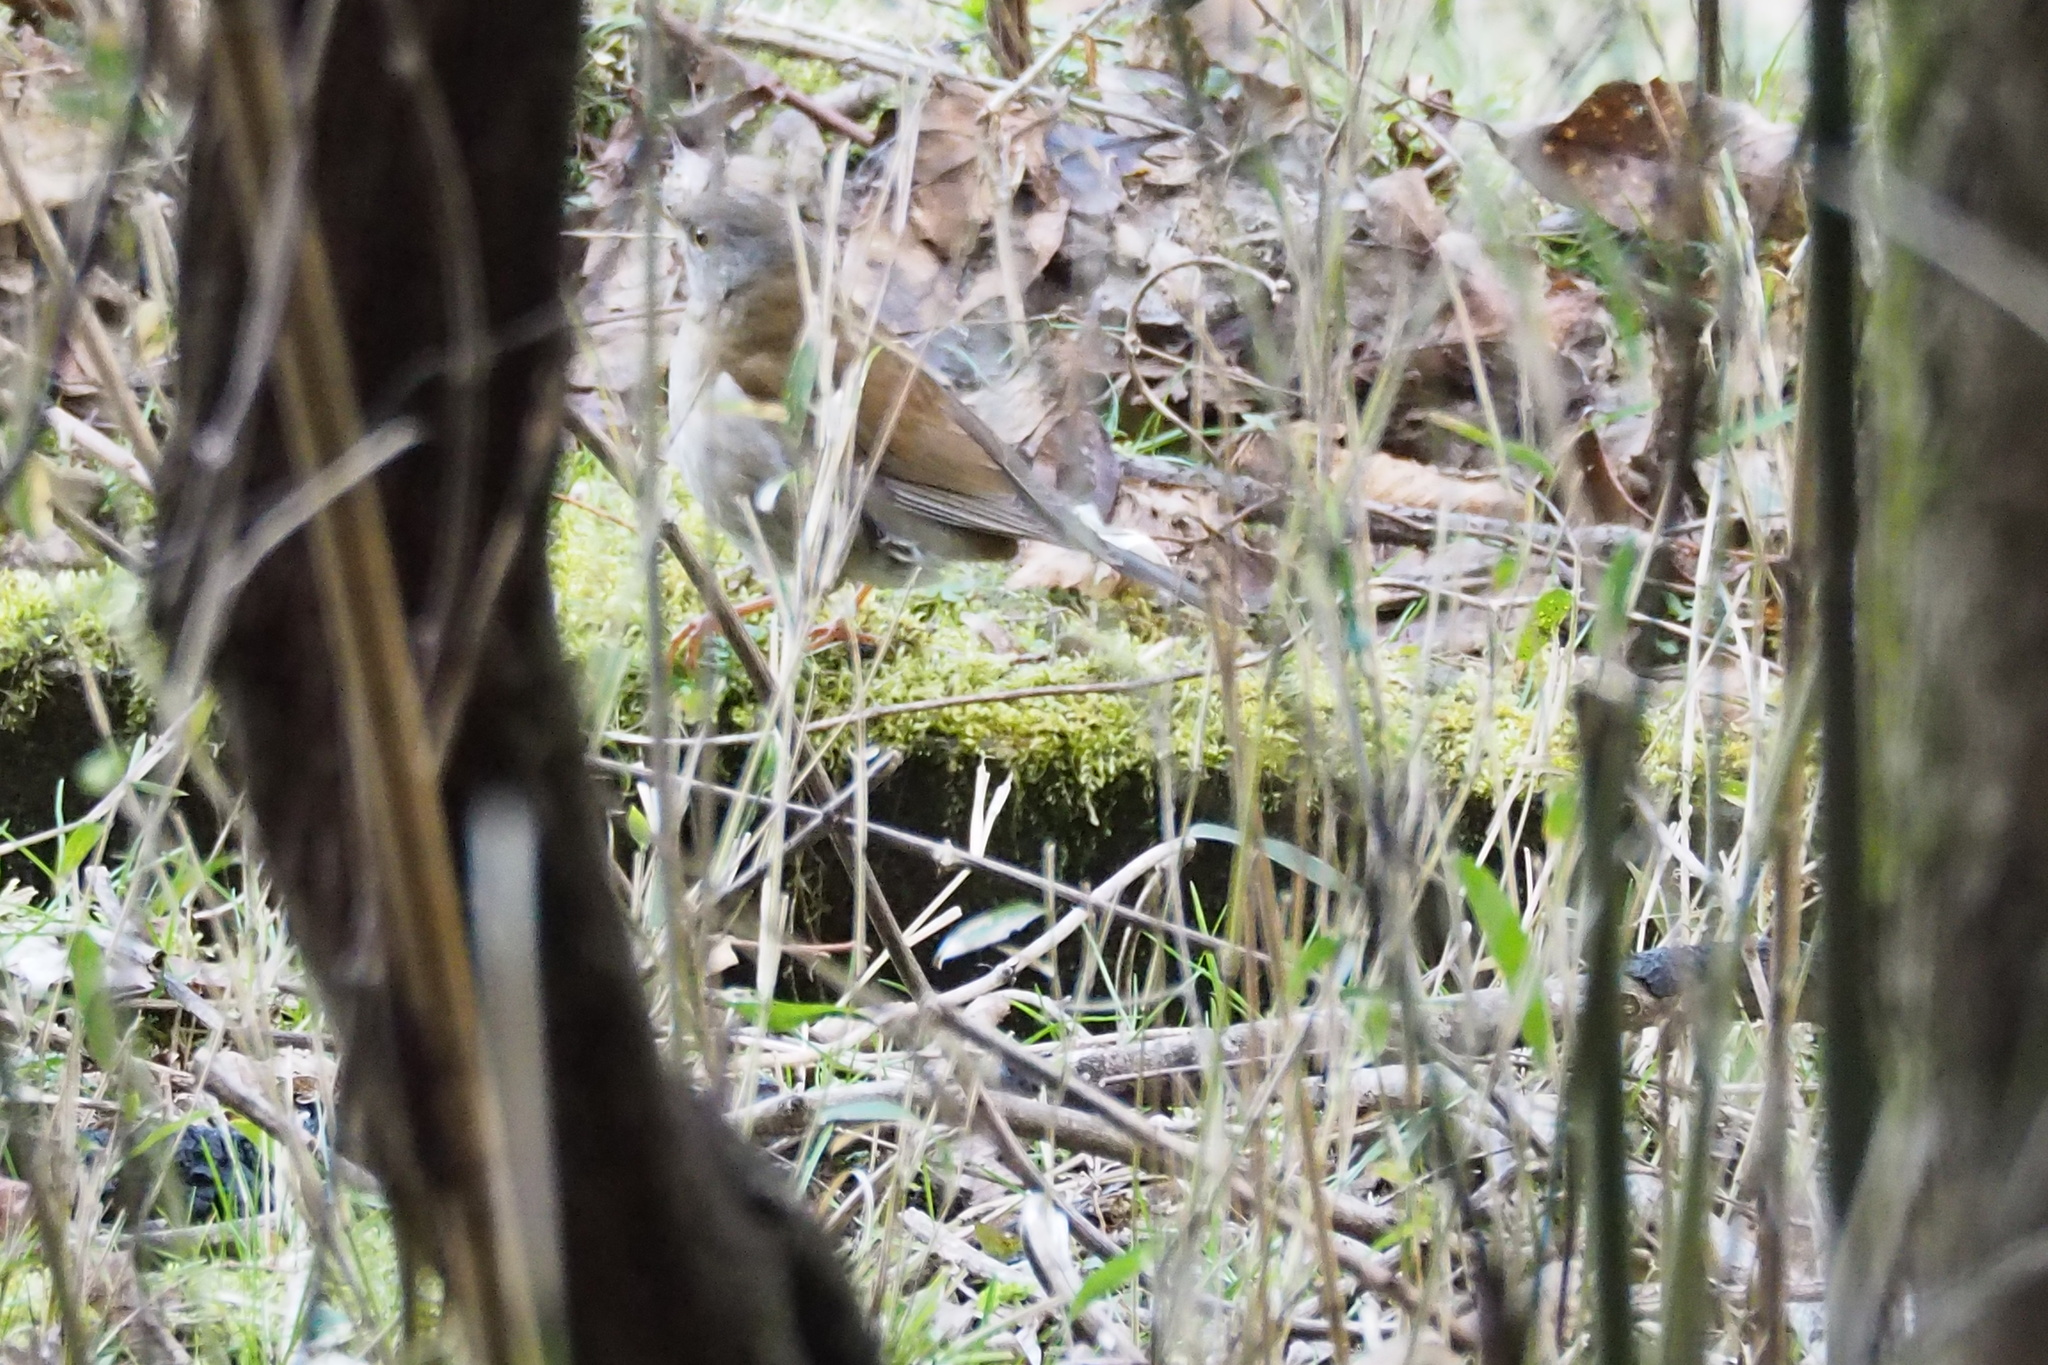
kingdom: Animalia
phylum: Chordata
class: Aves
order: Passeriformes
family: Turdidae
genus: Turdus
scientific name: Turdus pallidus
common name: Pale thrush
